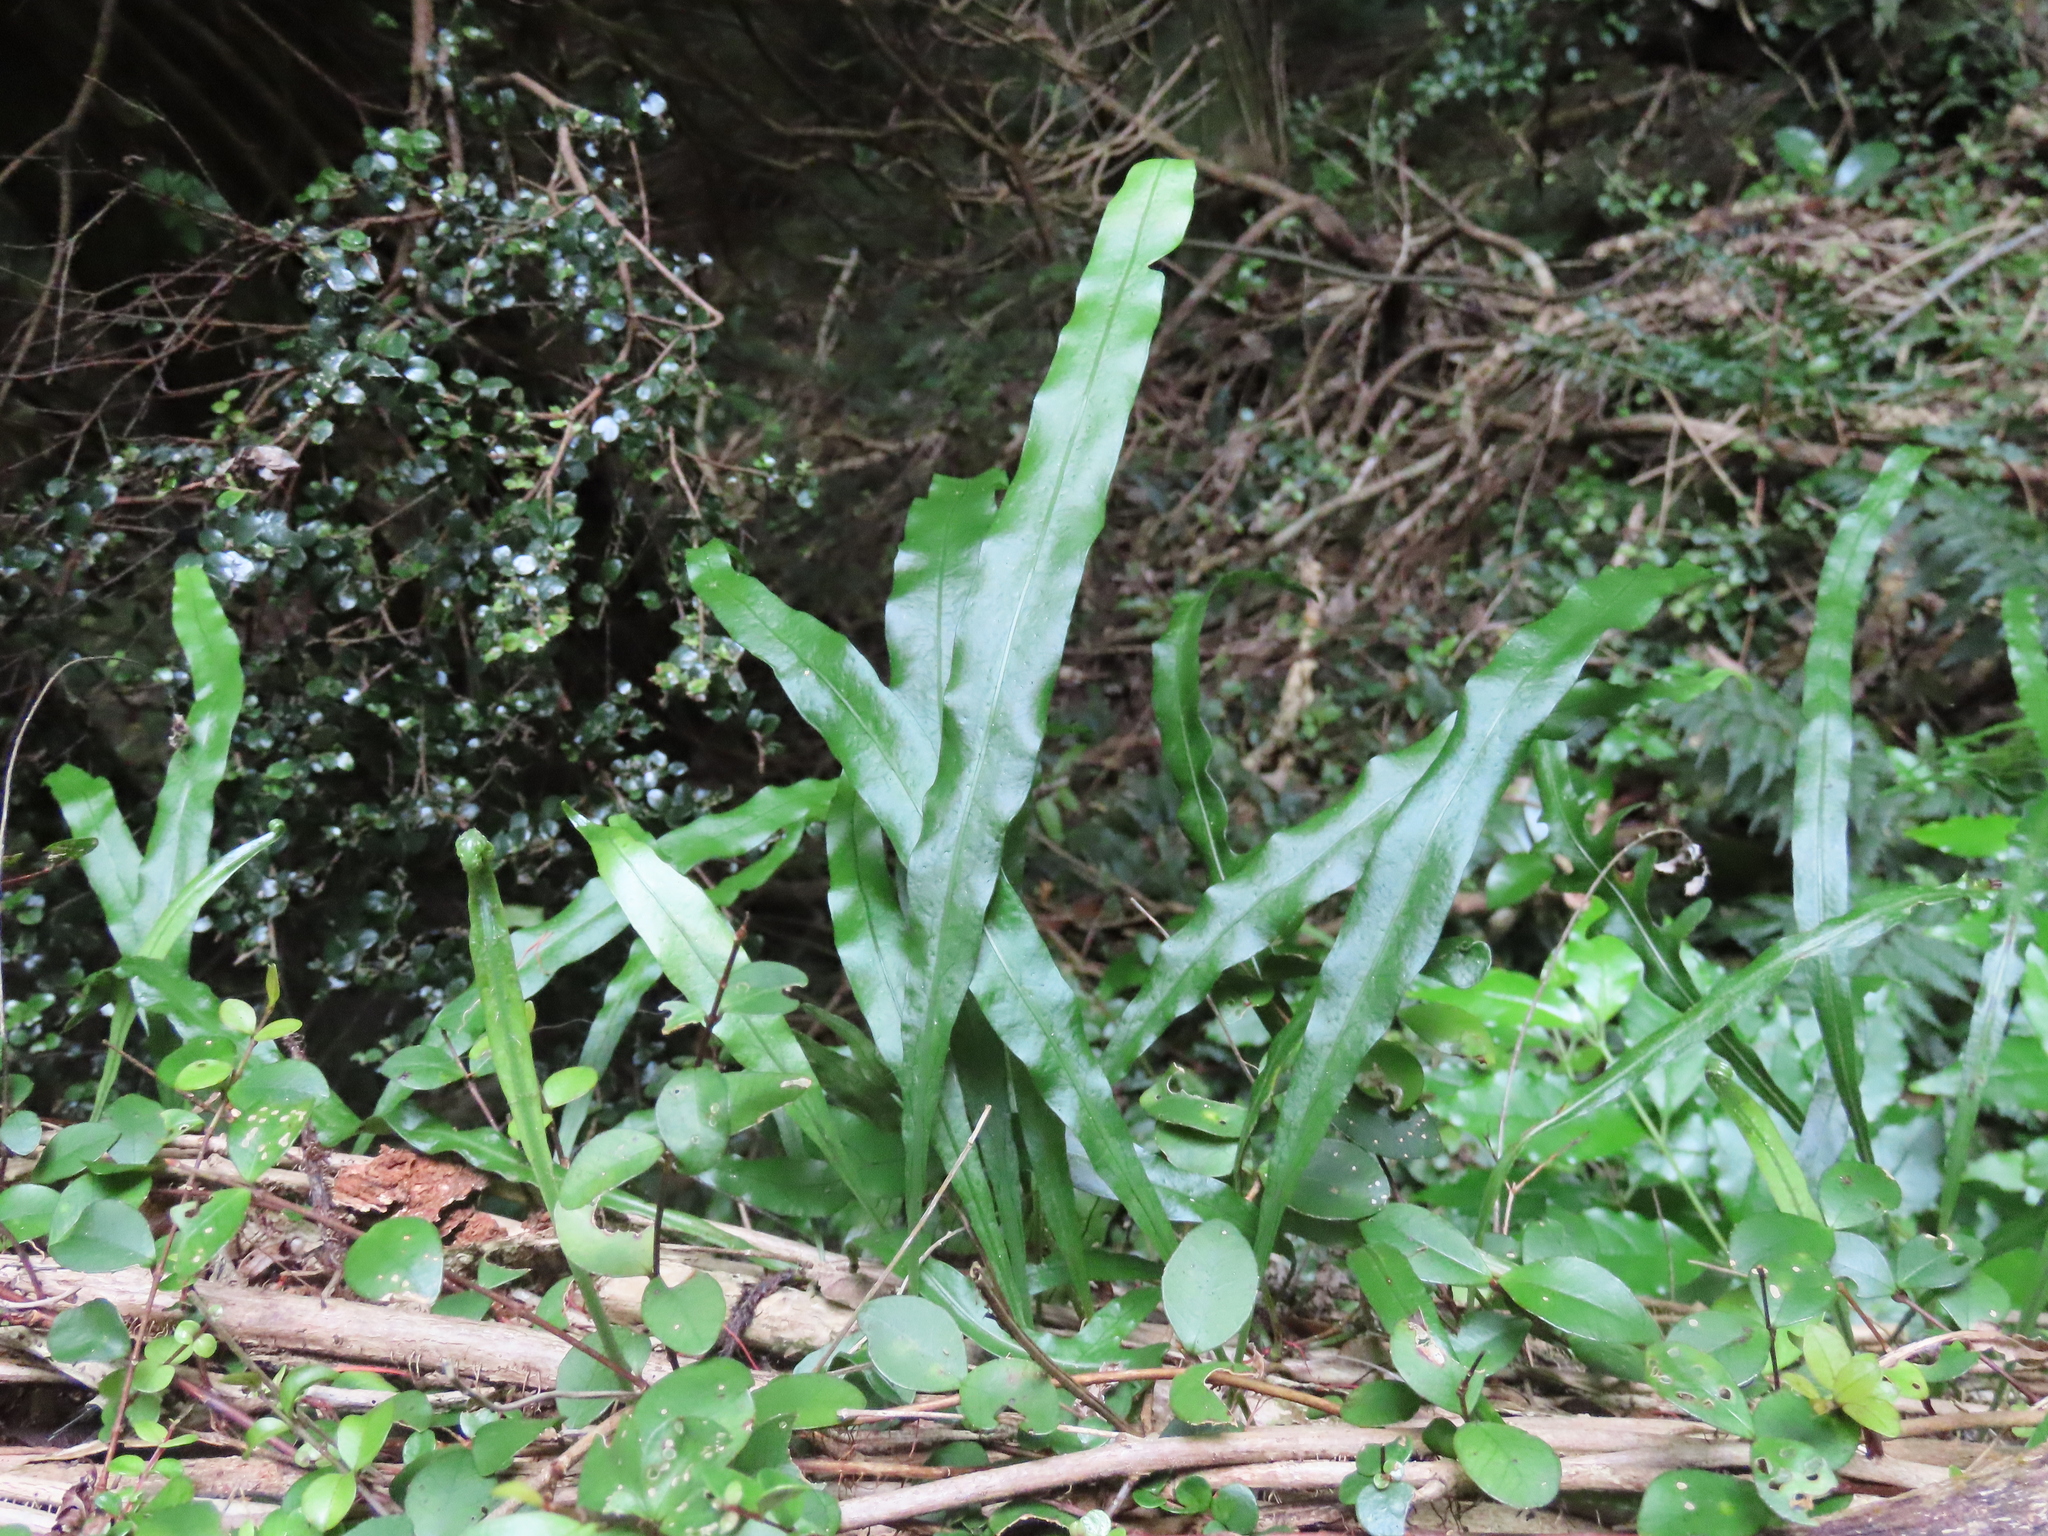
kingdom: Plantae
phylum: Tracheophyta
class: Polypodiopsida
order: Polypodiales
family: Polypodiaceae
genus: Lecanopteris
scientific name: Lecanopteris scandens
